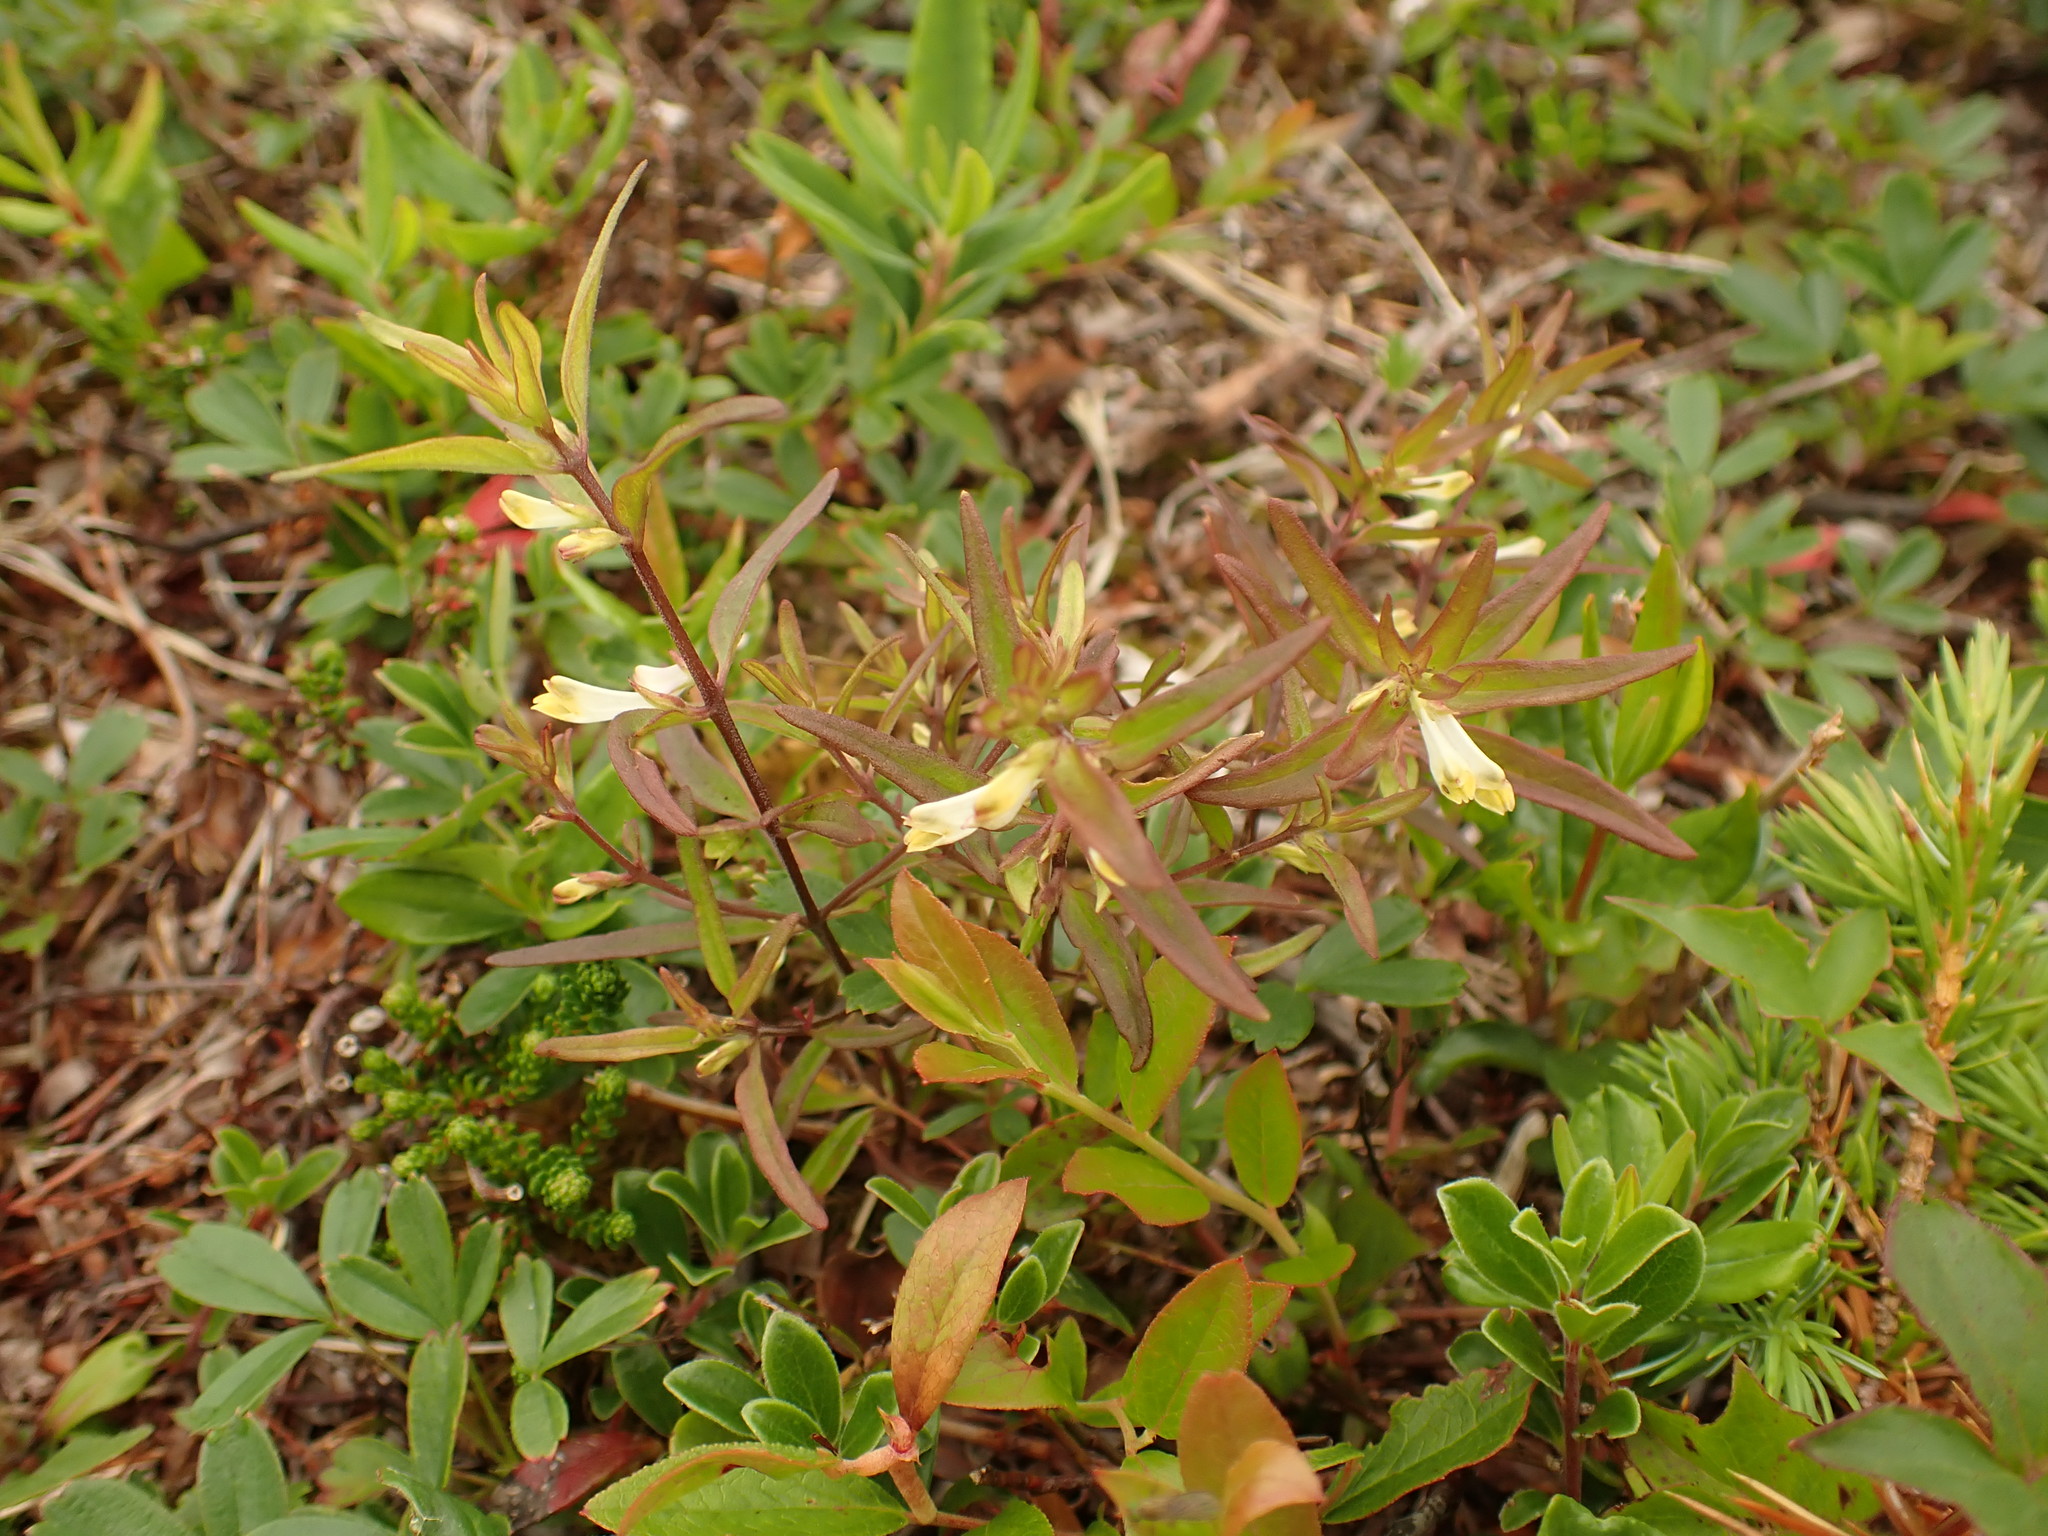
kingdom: Plantae
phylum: Tracheophyta
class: Magnoliopsida
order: Lamiales
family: Orobanchaceae
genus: Melampyrum
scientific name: Melampyrum lineare
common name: American cow-wheat
